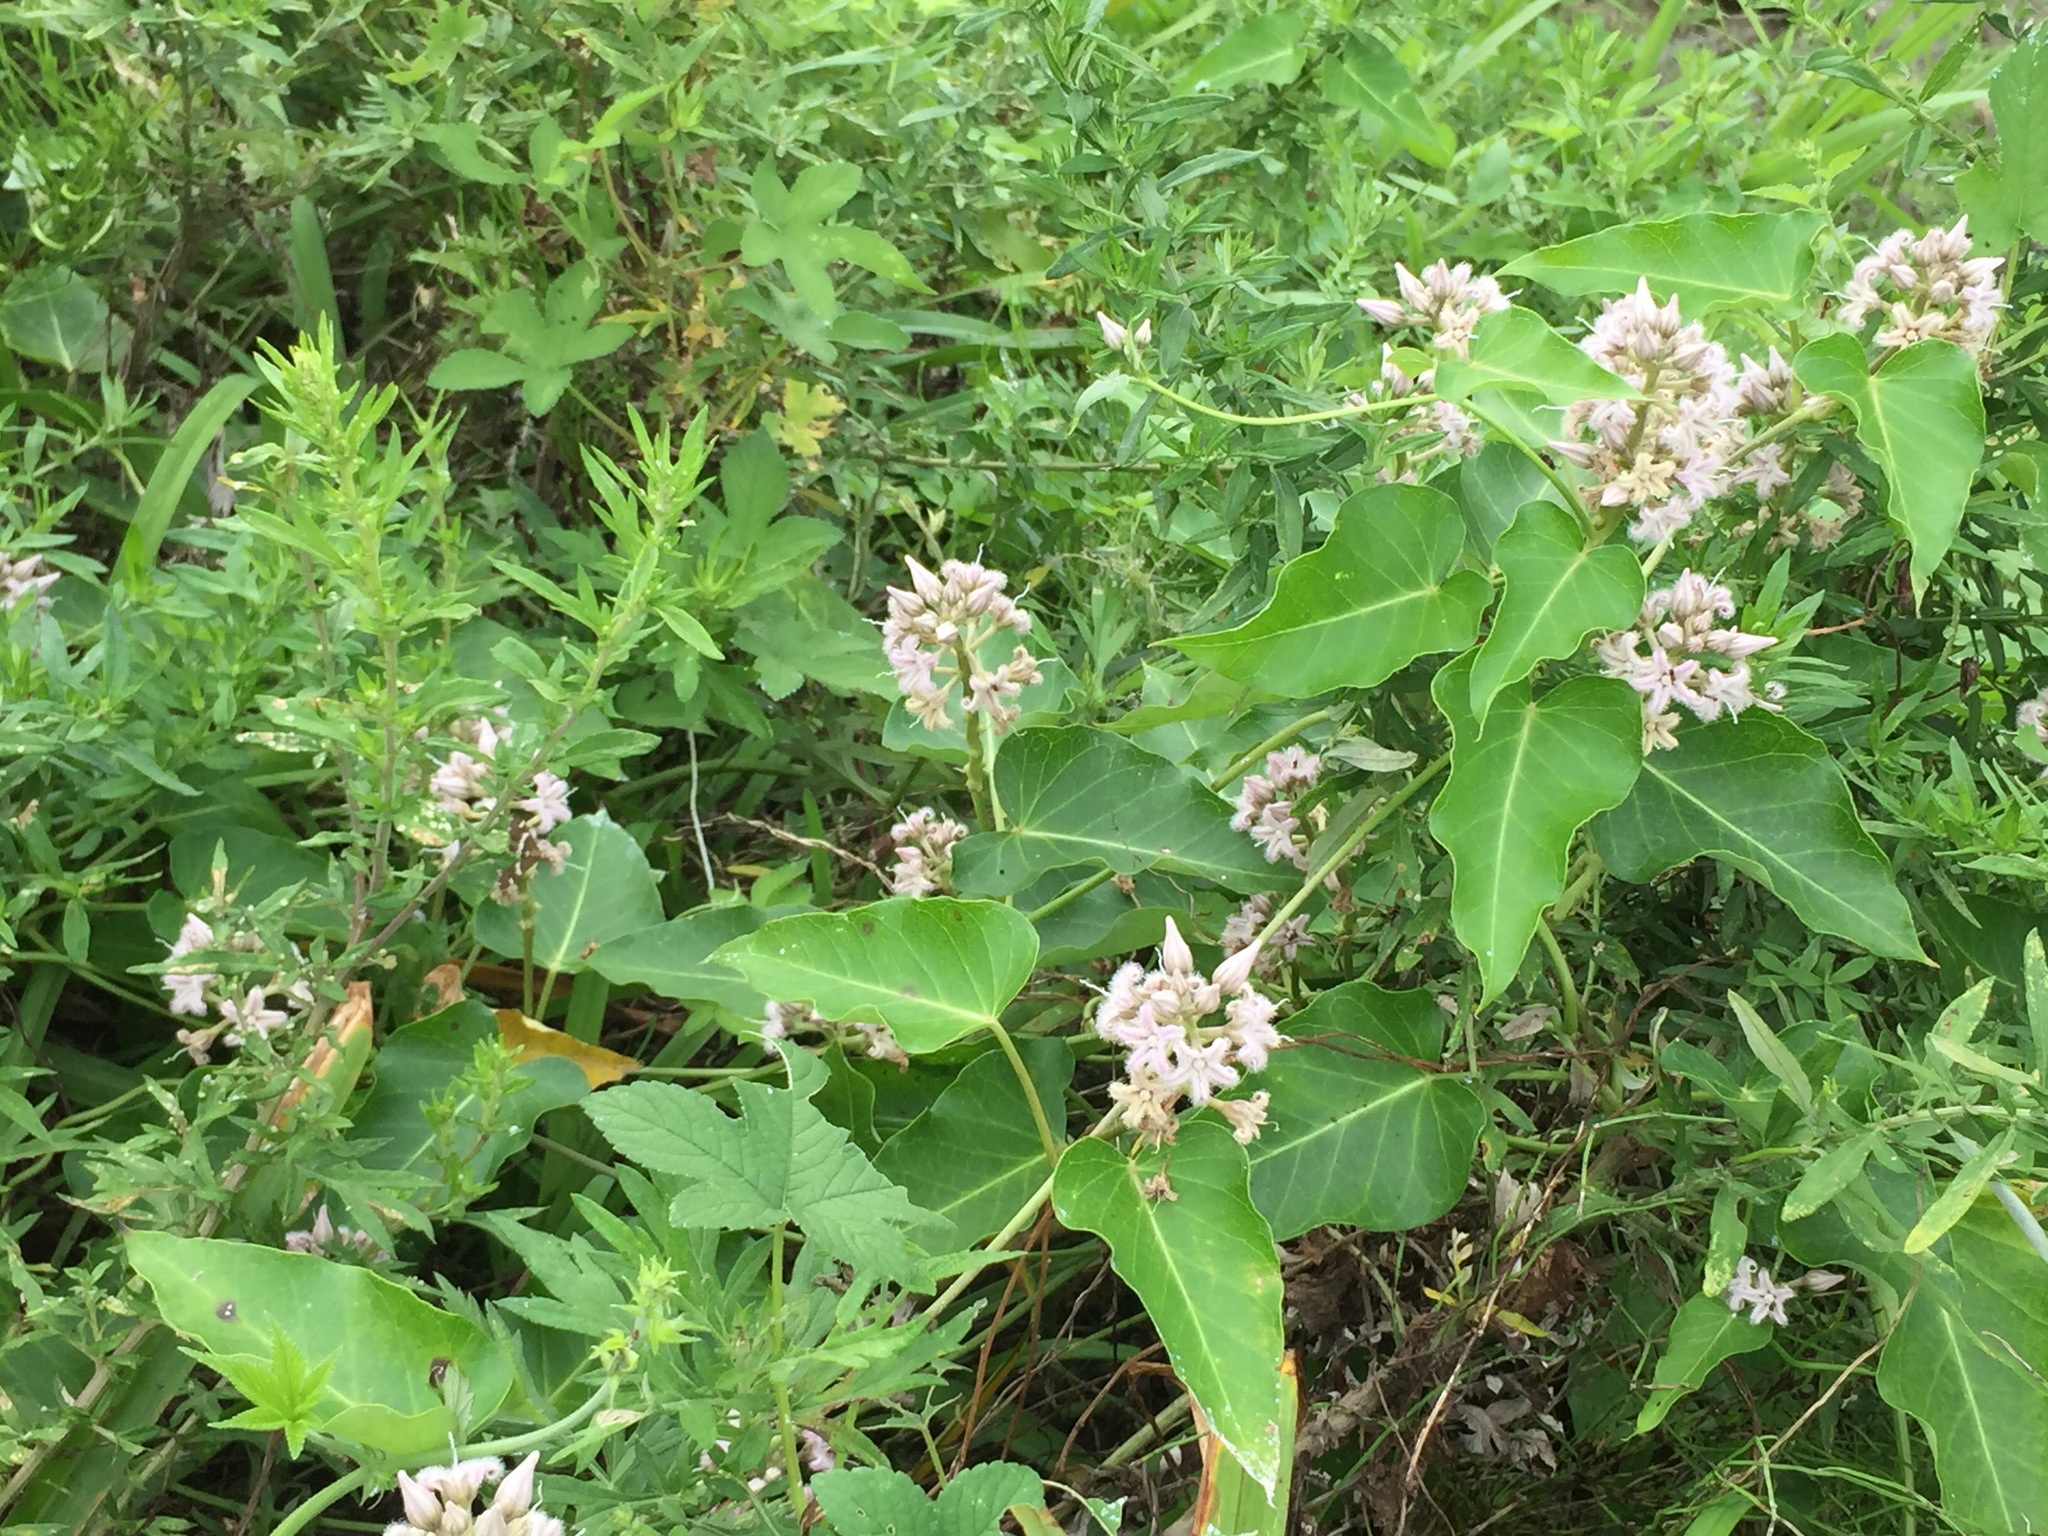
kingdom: Plantae
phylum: Tracheophyta
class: Magnoliopsida
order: Gentianales
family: Apocynaceae
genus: Cynanchum
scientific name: Cynanchum rostellatum
